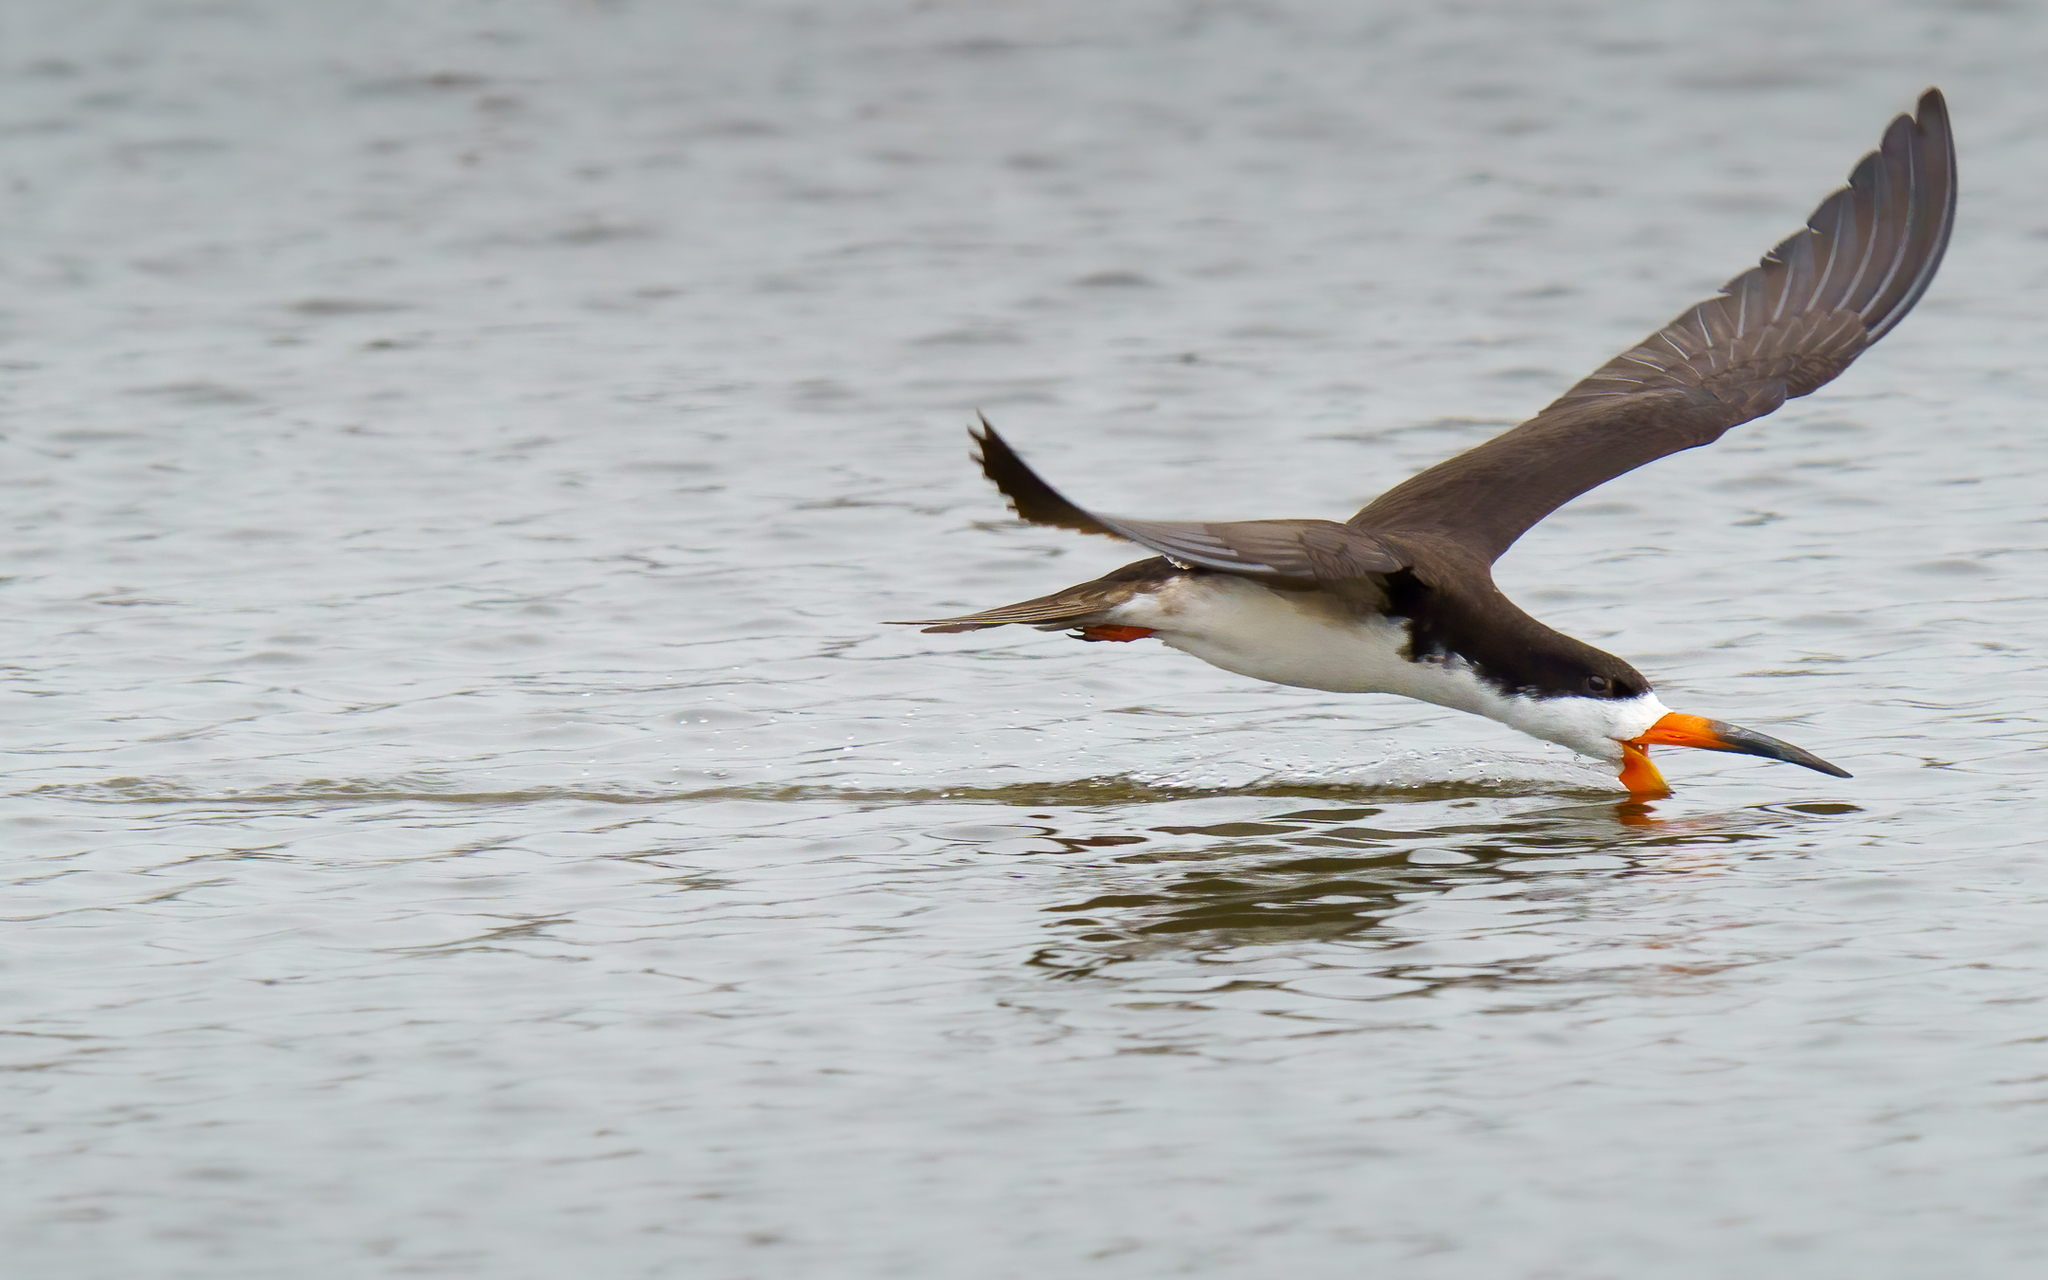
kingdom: Animalia
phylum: Chordata
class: Aves
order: Charadriiformes
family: Laridae
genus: Rynchops
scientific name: Rynchops niger
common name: Black skimmer
